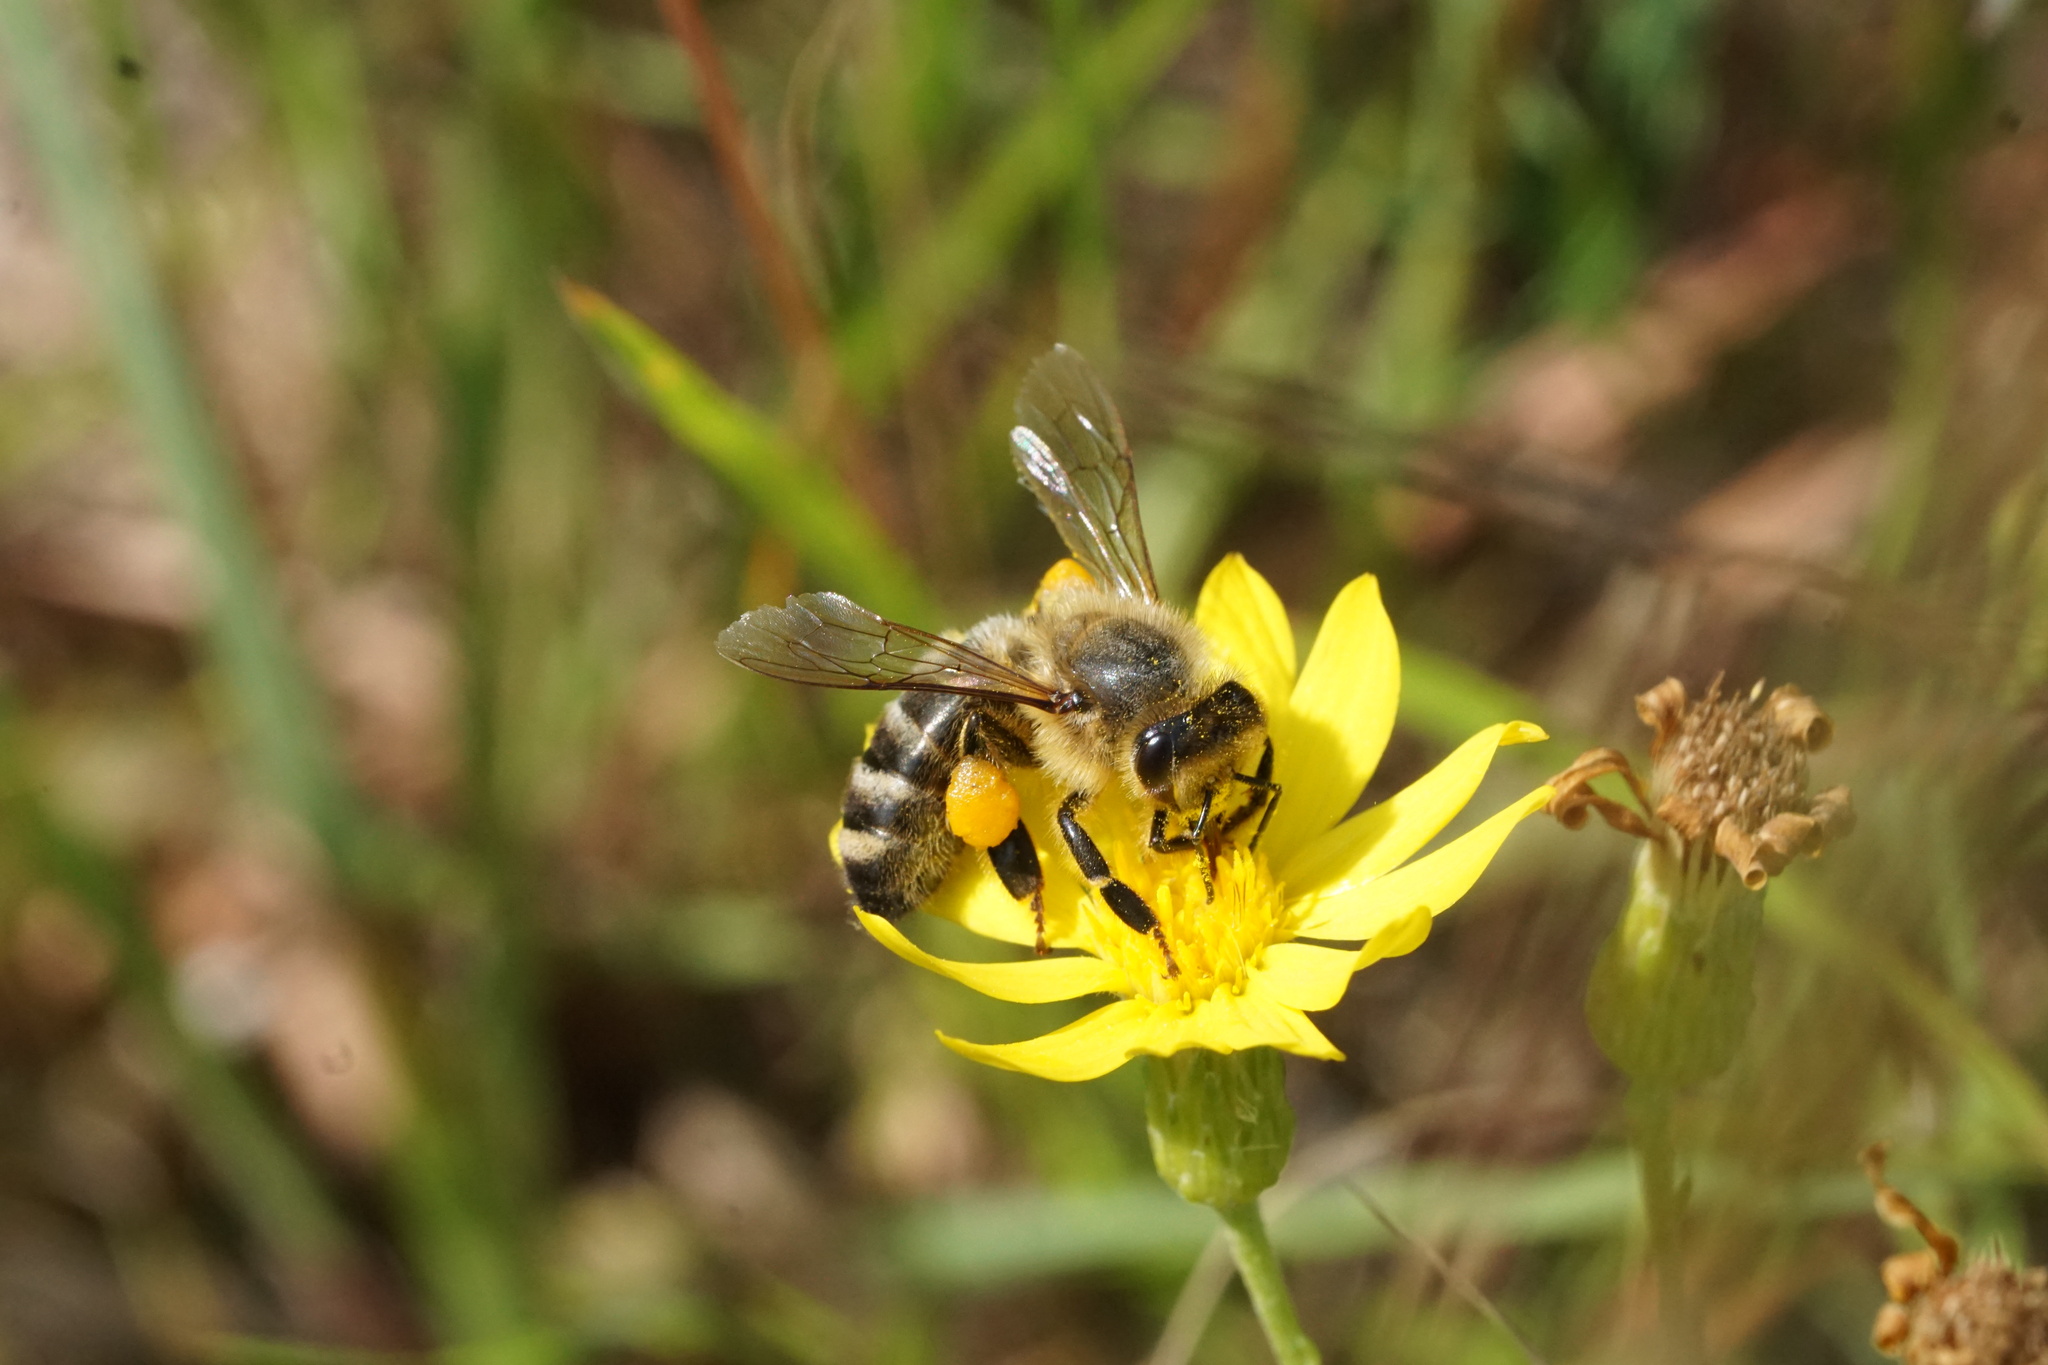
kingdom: Animalia
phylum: Arthropoda
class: Insecta
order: Hymenoptera
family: Apidae
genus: Apis
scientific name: Apis mellifera
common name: Honey bee
